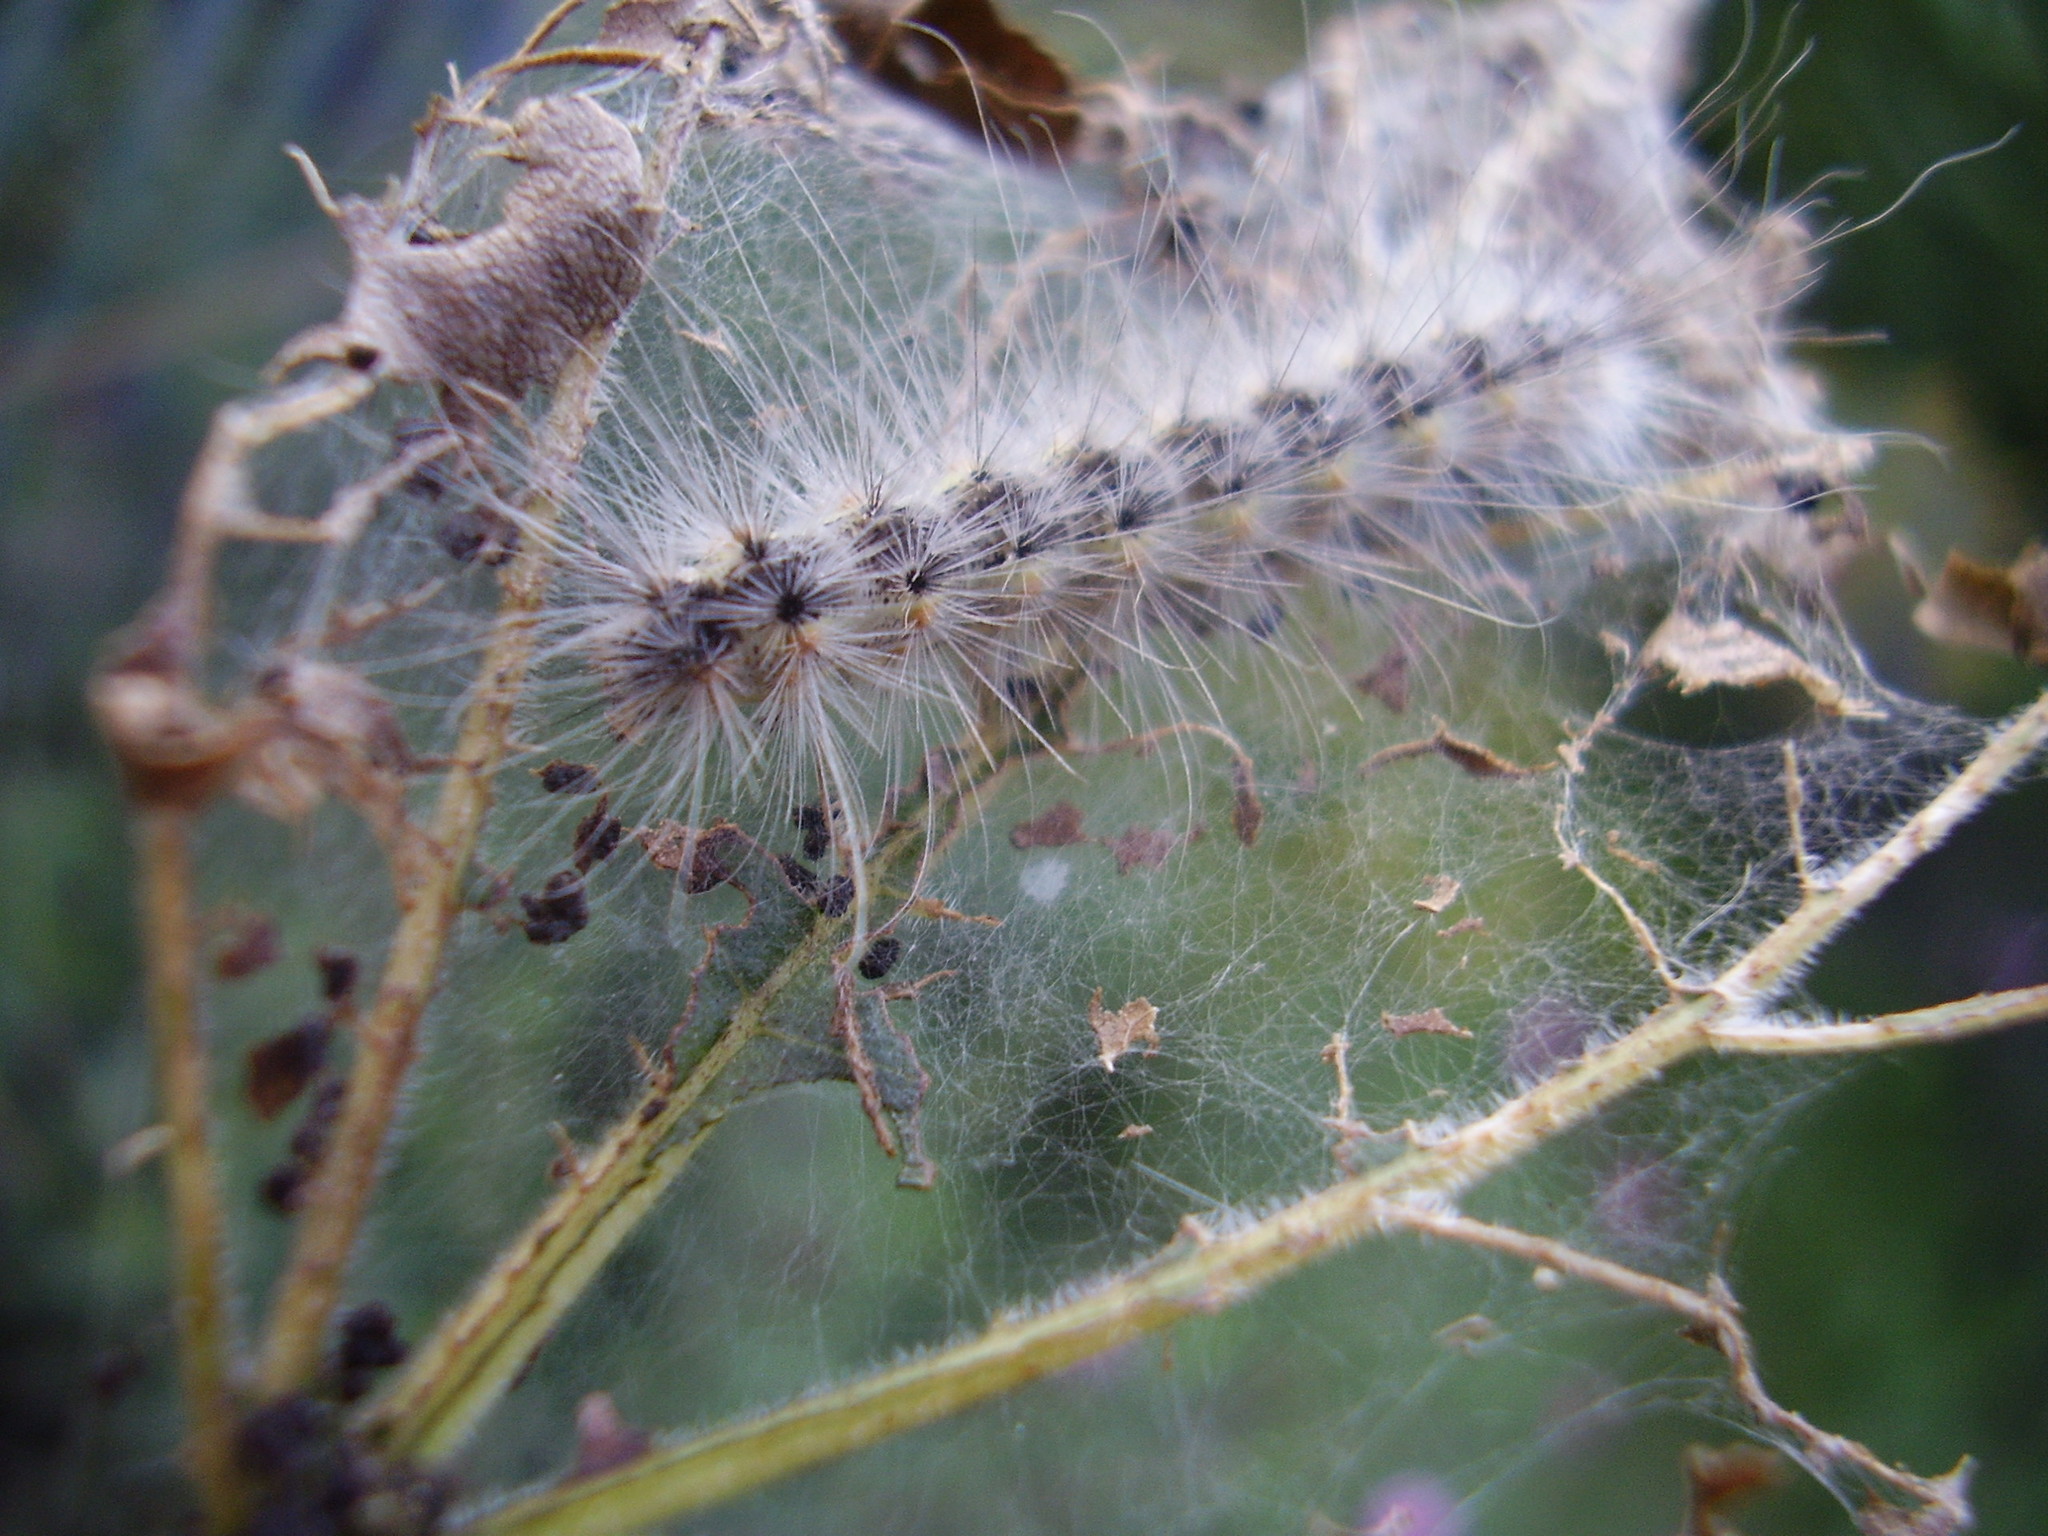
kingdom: Animalia
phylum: Arthropoda
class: Insecta
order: Lepidoptera
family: Erebidae
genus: Hyphantria
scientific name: Hyphantria cunea
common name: American white moth
